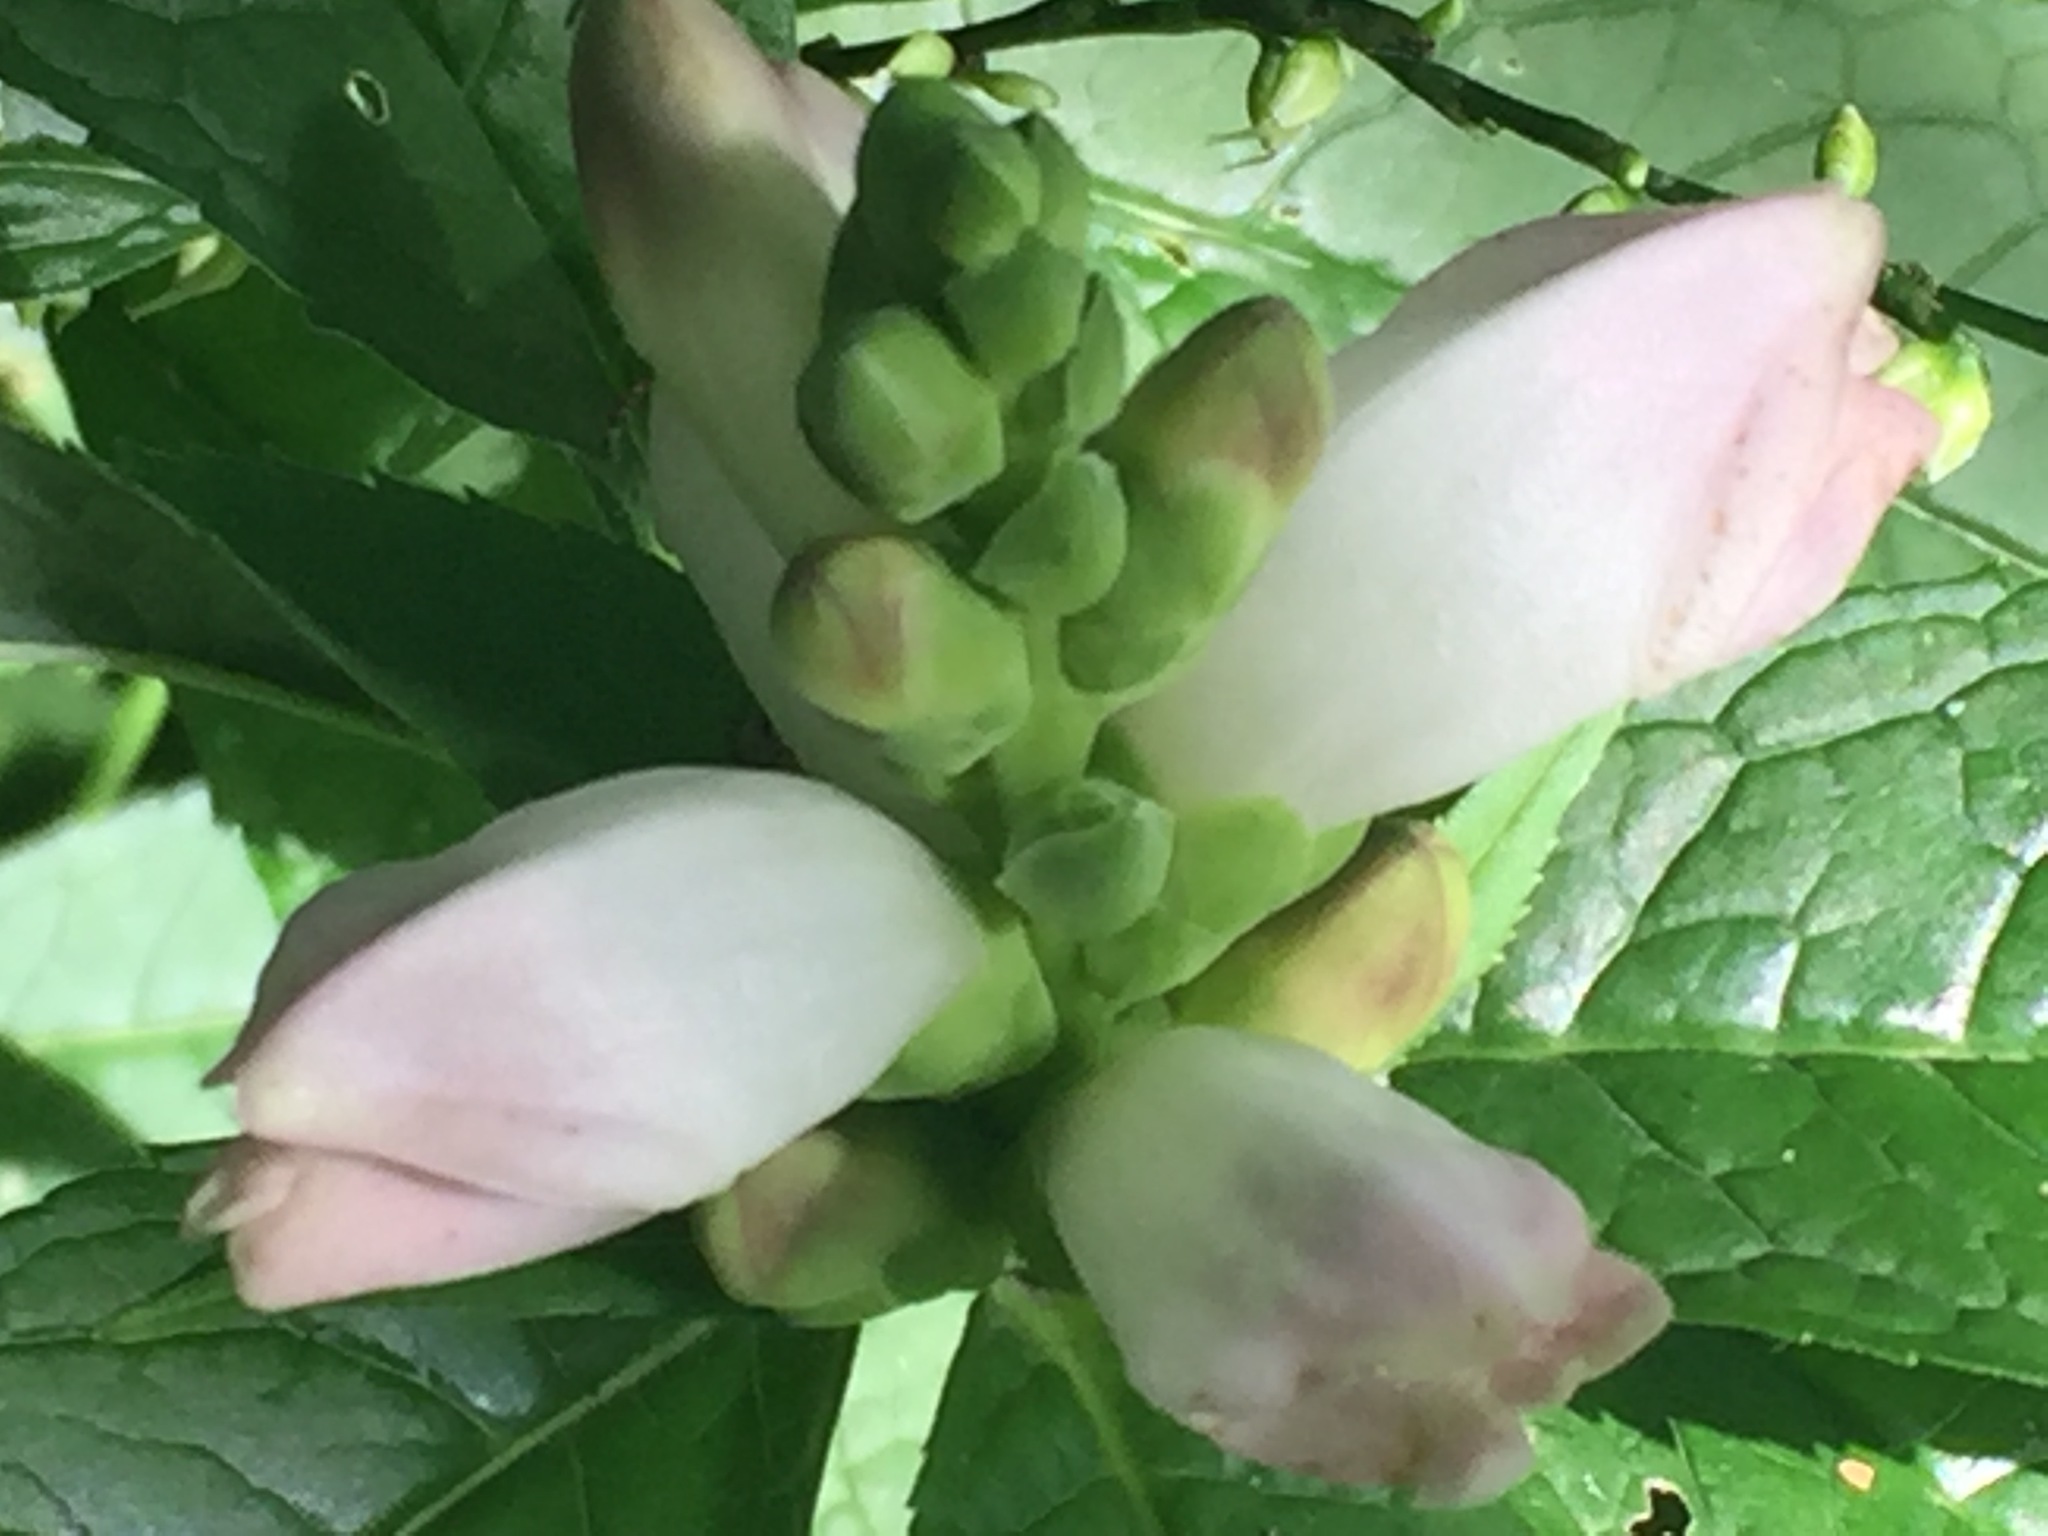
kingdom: Plantae
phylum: Tracheophyta
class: Magnoliopsida
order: Lamiales
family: Plantaginaceae
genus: Chelone
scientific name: Chelone glabra
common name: Snakehead
